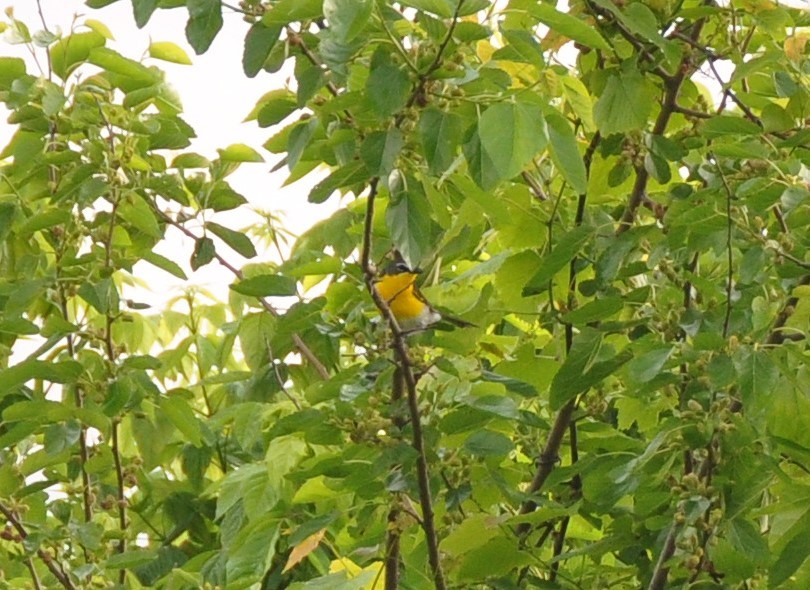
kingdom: Animalia
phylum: Chordata
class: Aves
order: Passeriformes
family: Parulidae
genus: Icteria
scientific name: Icteria virens
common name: Yellow-breasted chat
